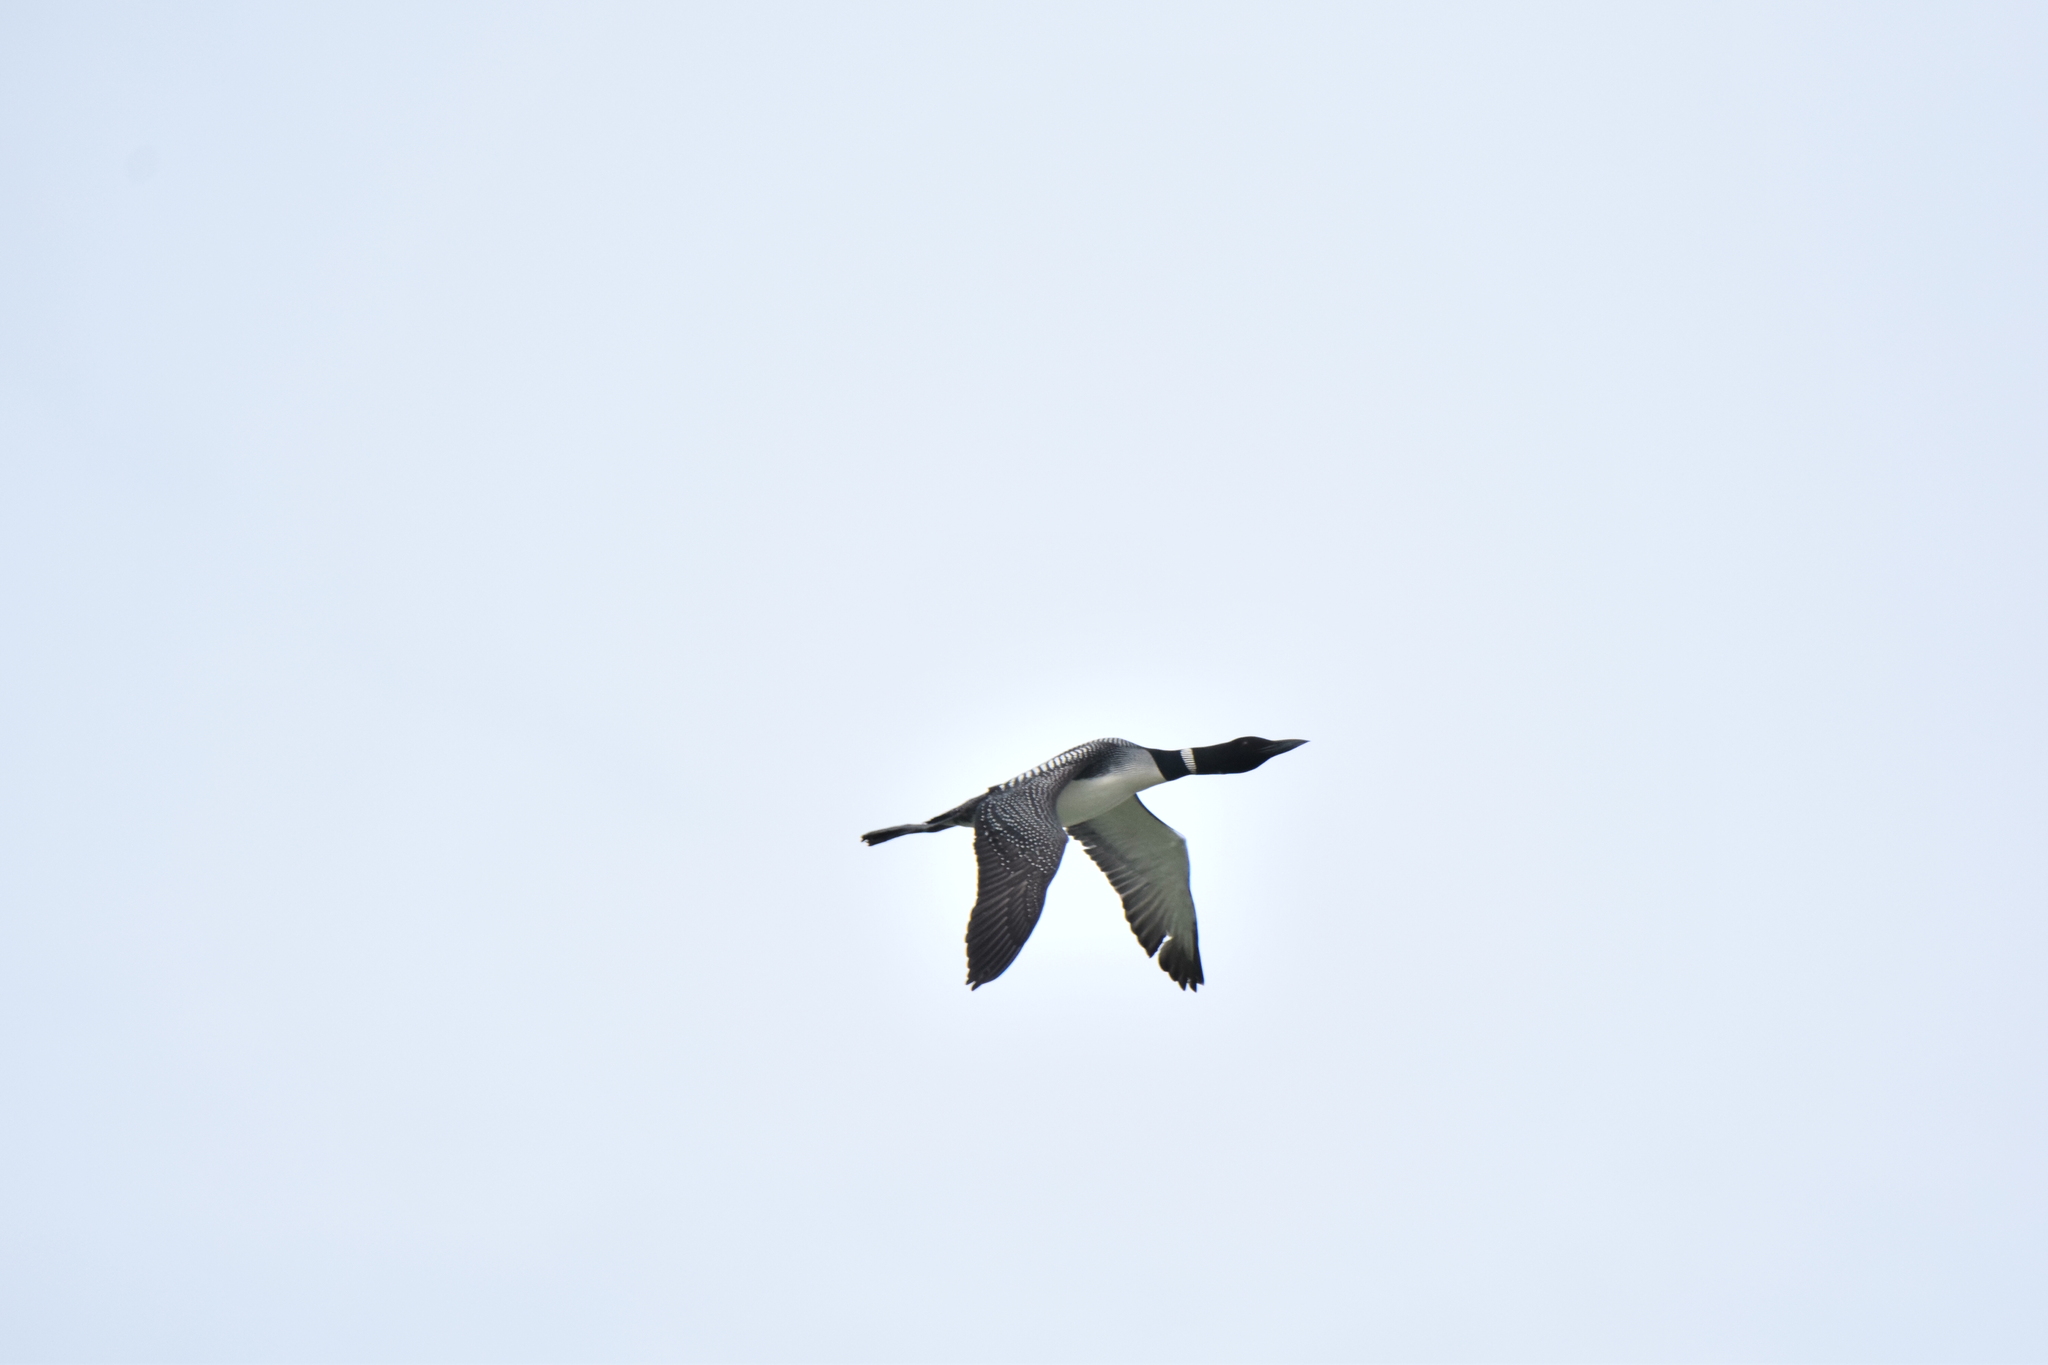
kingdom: Animalia
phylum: Chordata
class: Aves
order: Gaviiformes
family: Gaviidae
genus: Gavia
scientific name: Gavia immer
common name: Common loon
